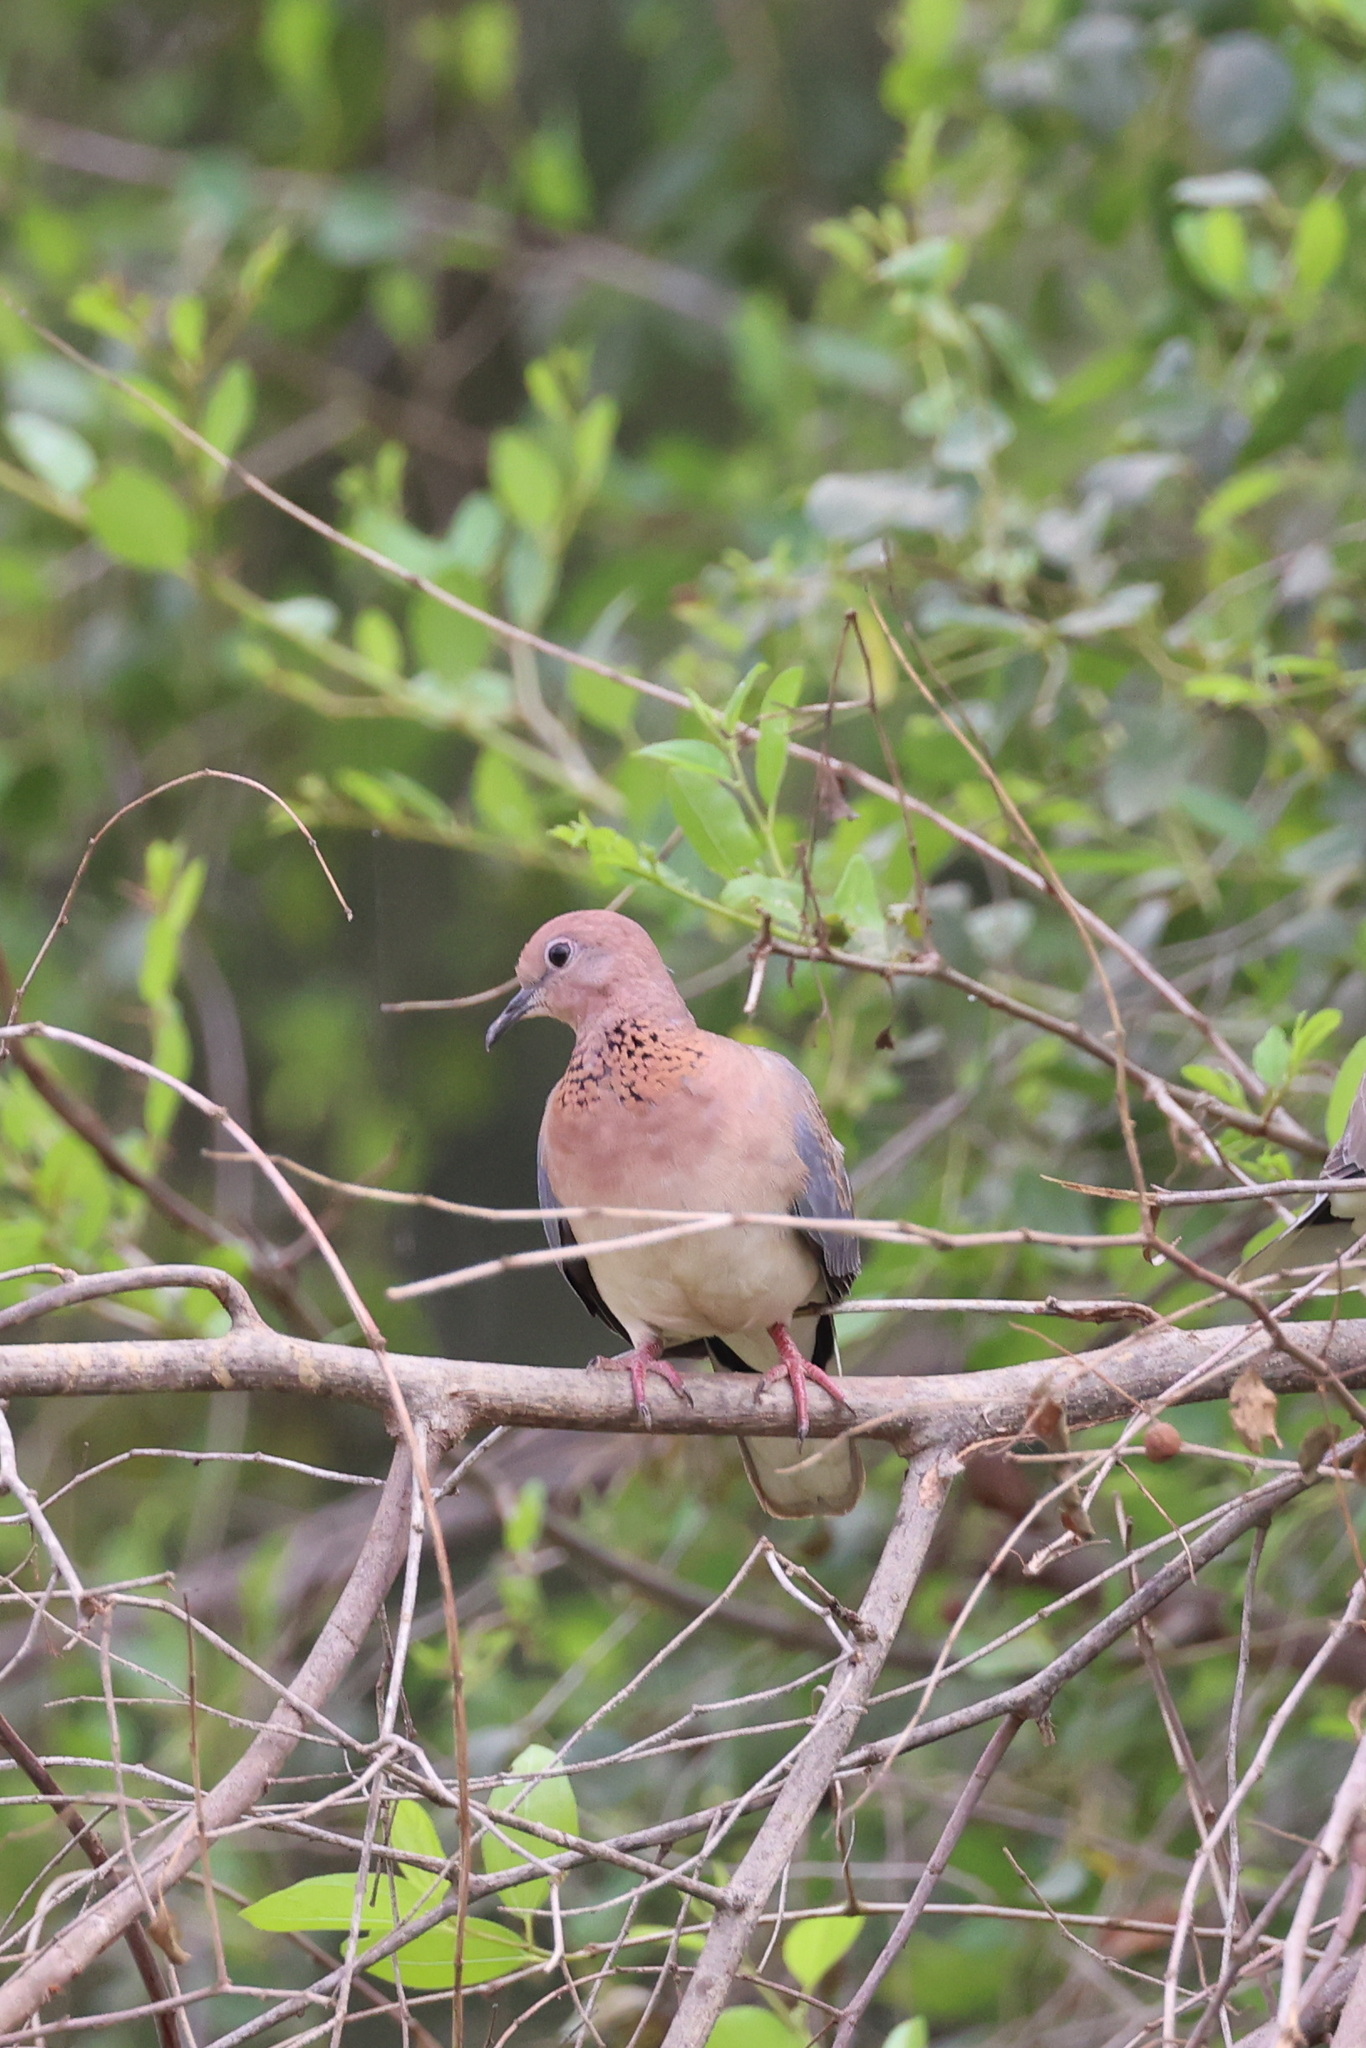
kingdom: Animalia
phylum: Chordata
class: Aves
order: Columbiformes
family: Columbidae
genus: Spilopelia
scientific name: Spilopelia senegalensis
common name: Laughing dove
